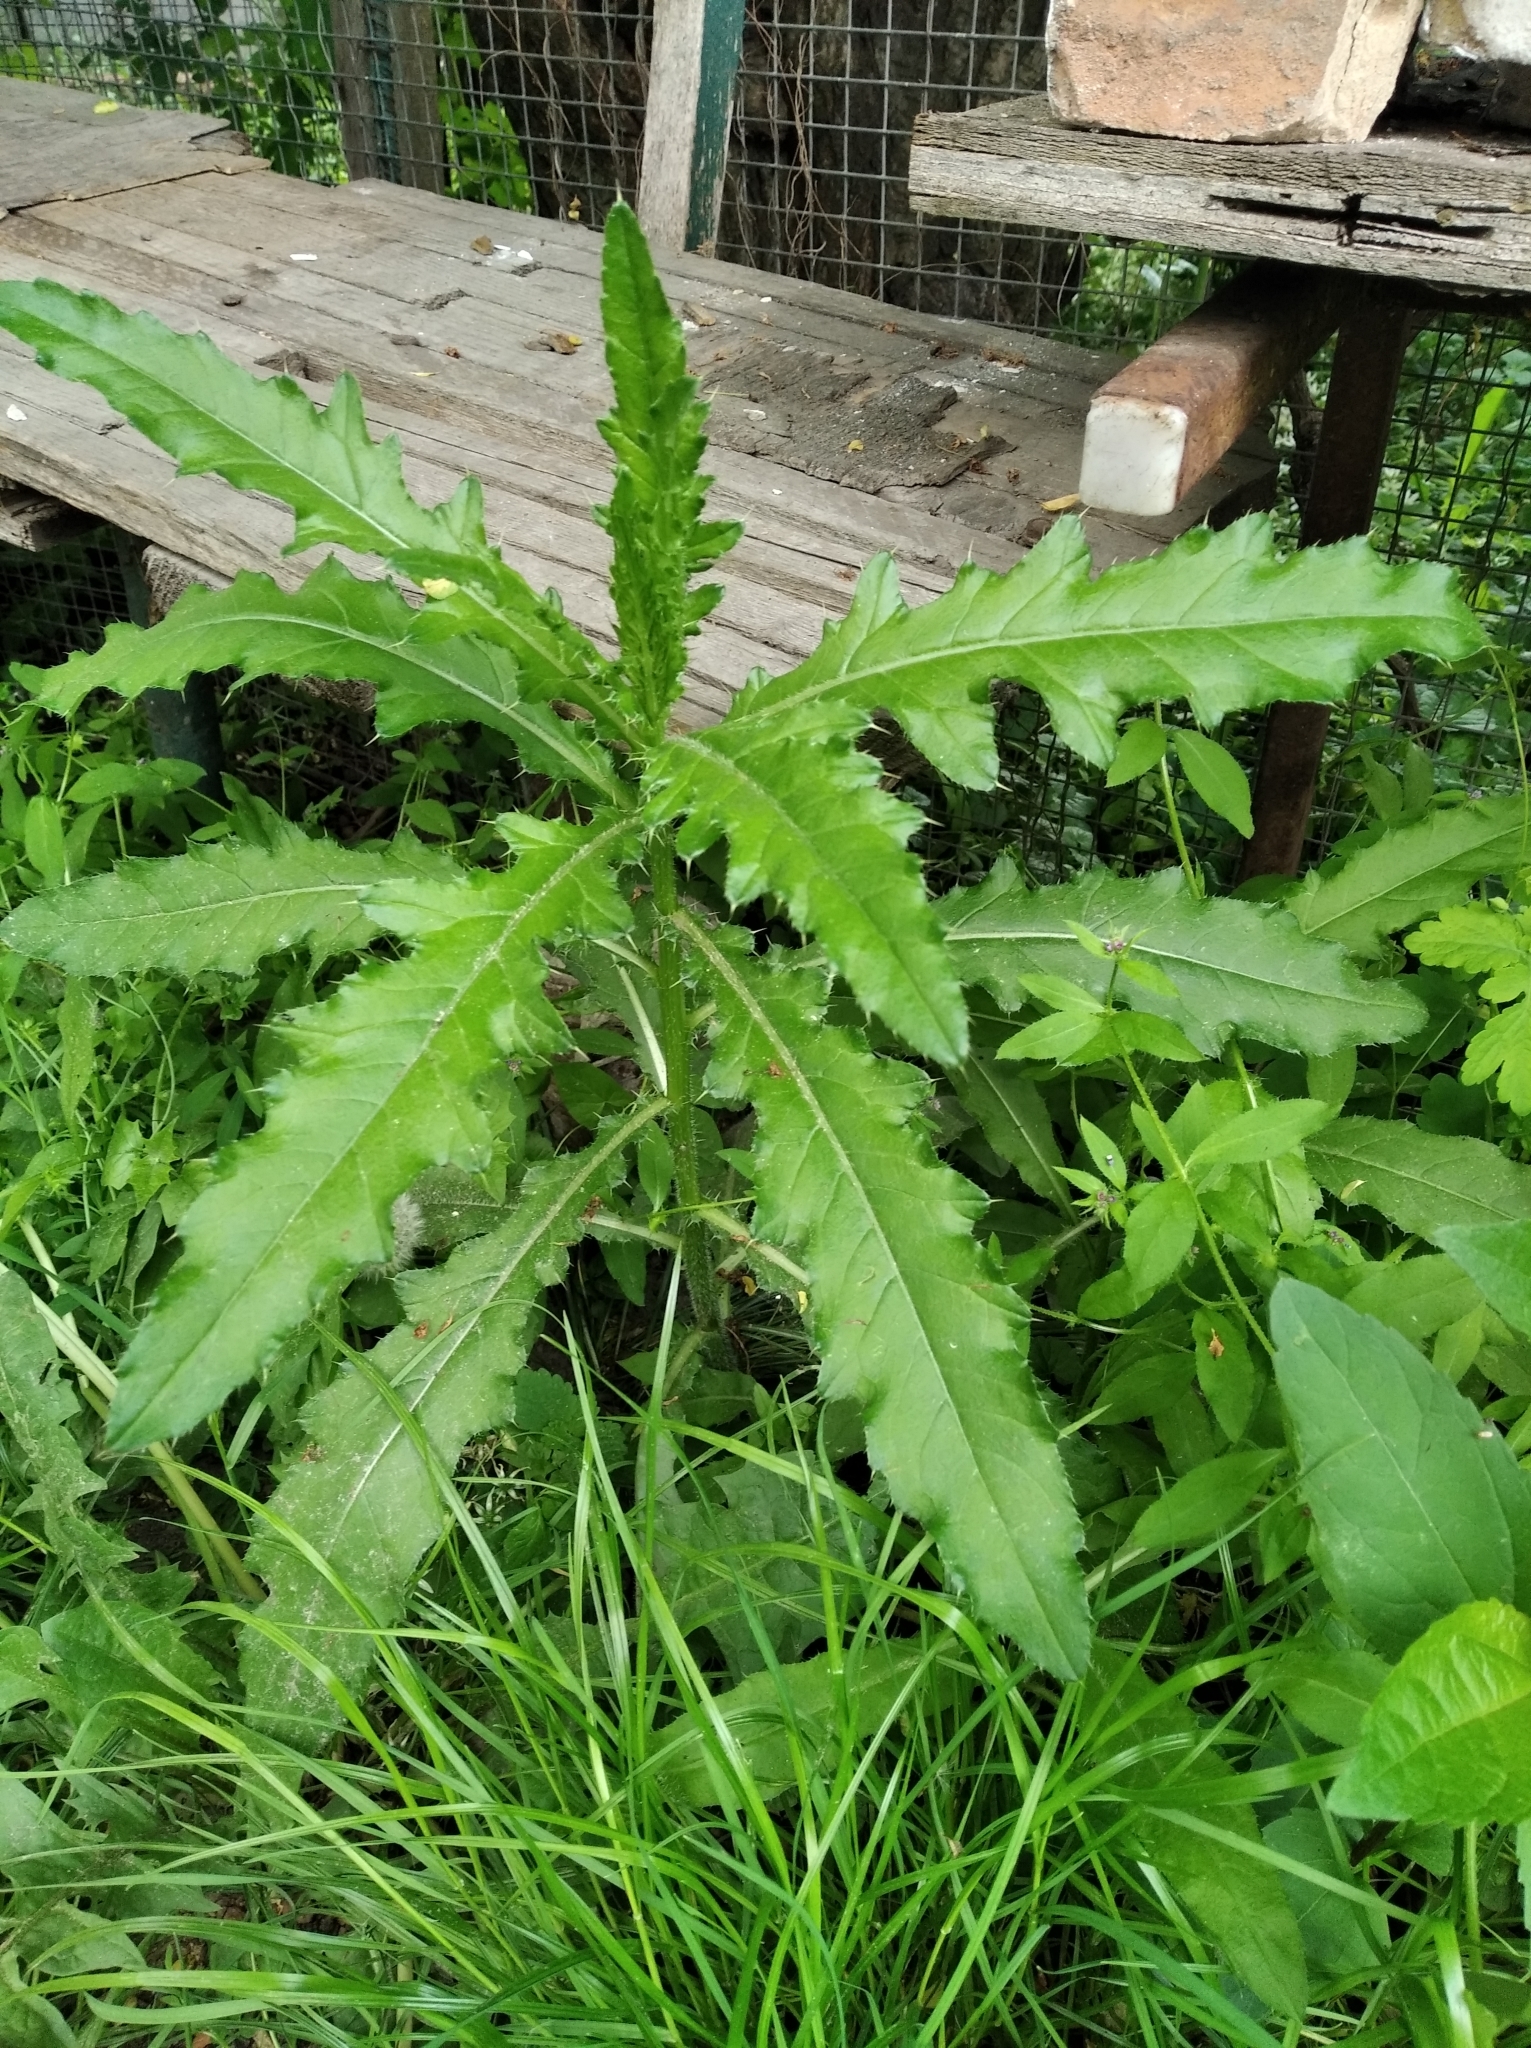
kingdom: Plantae
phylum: Tracheophyta
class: Magnoliopsida
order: Asterales
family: Asteraceae
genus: Cirsium
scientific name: Cirsium arvense
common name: Creeping thistle
